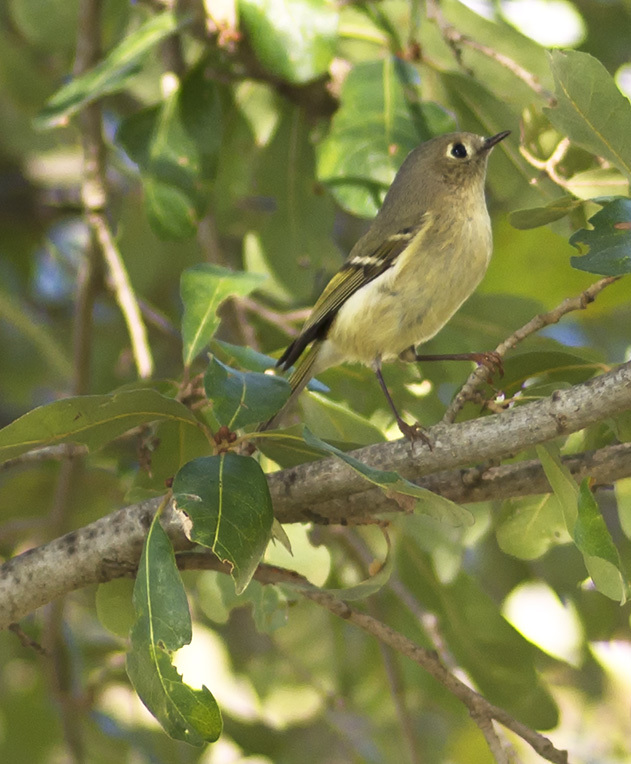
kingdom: Animalia
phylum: Chordata
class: Aves
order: Passeriformes
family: Regulidae
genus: Regulus
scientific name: Regulus calendula
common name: Ruby-crowned kinglet
